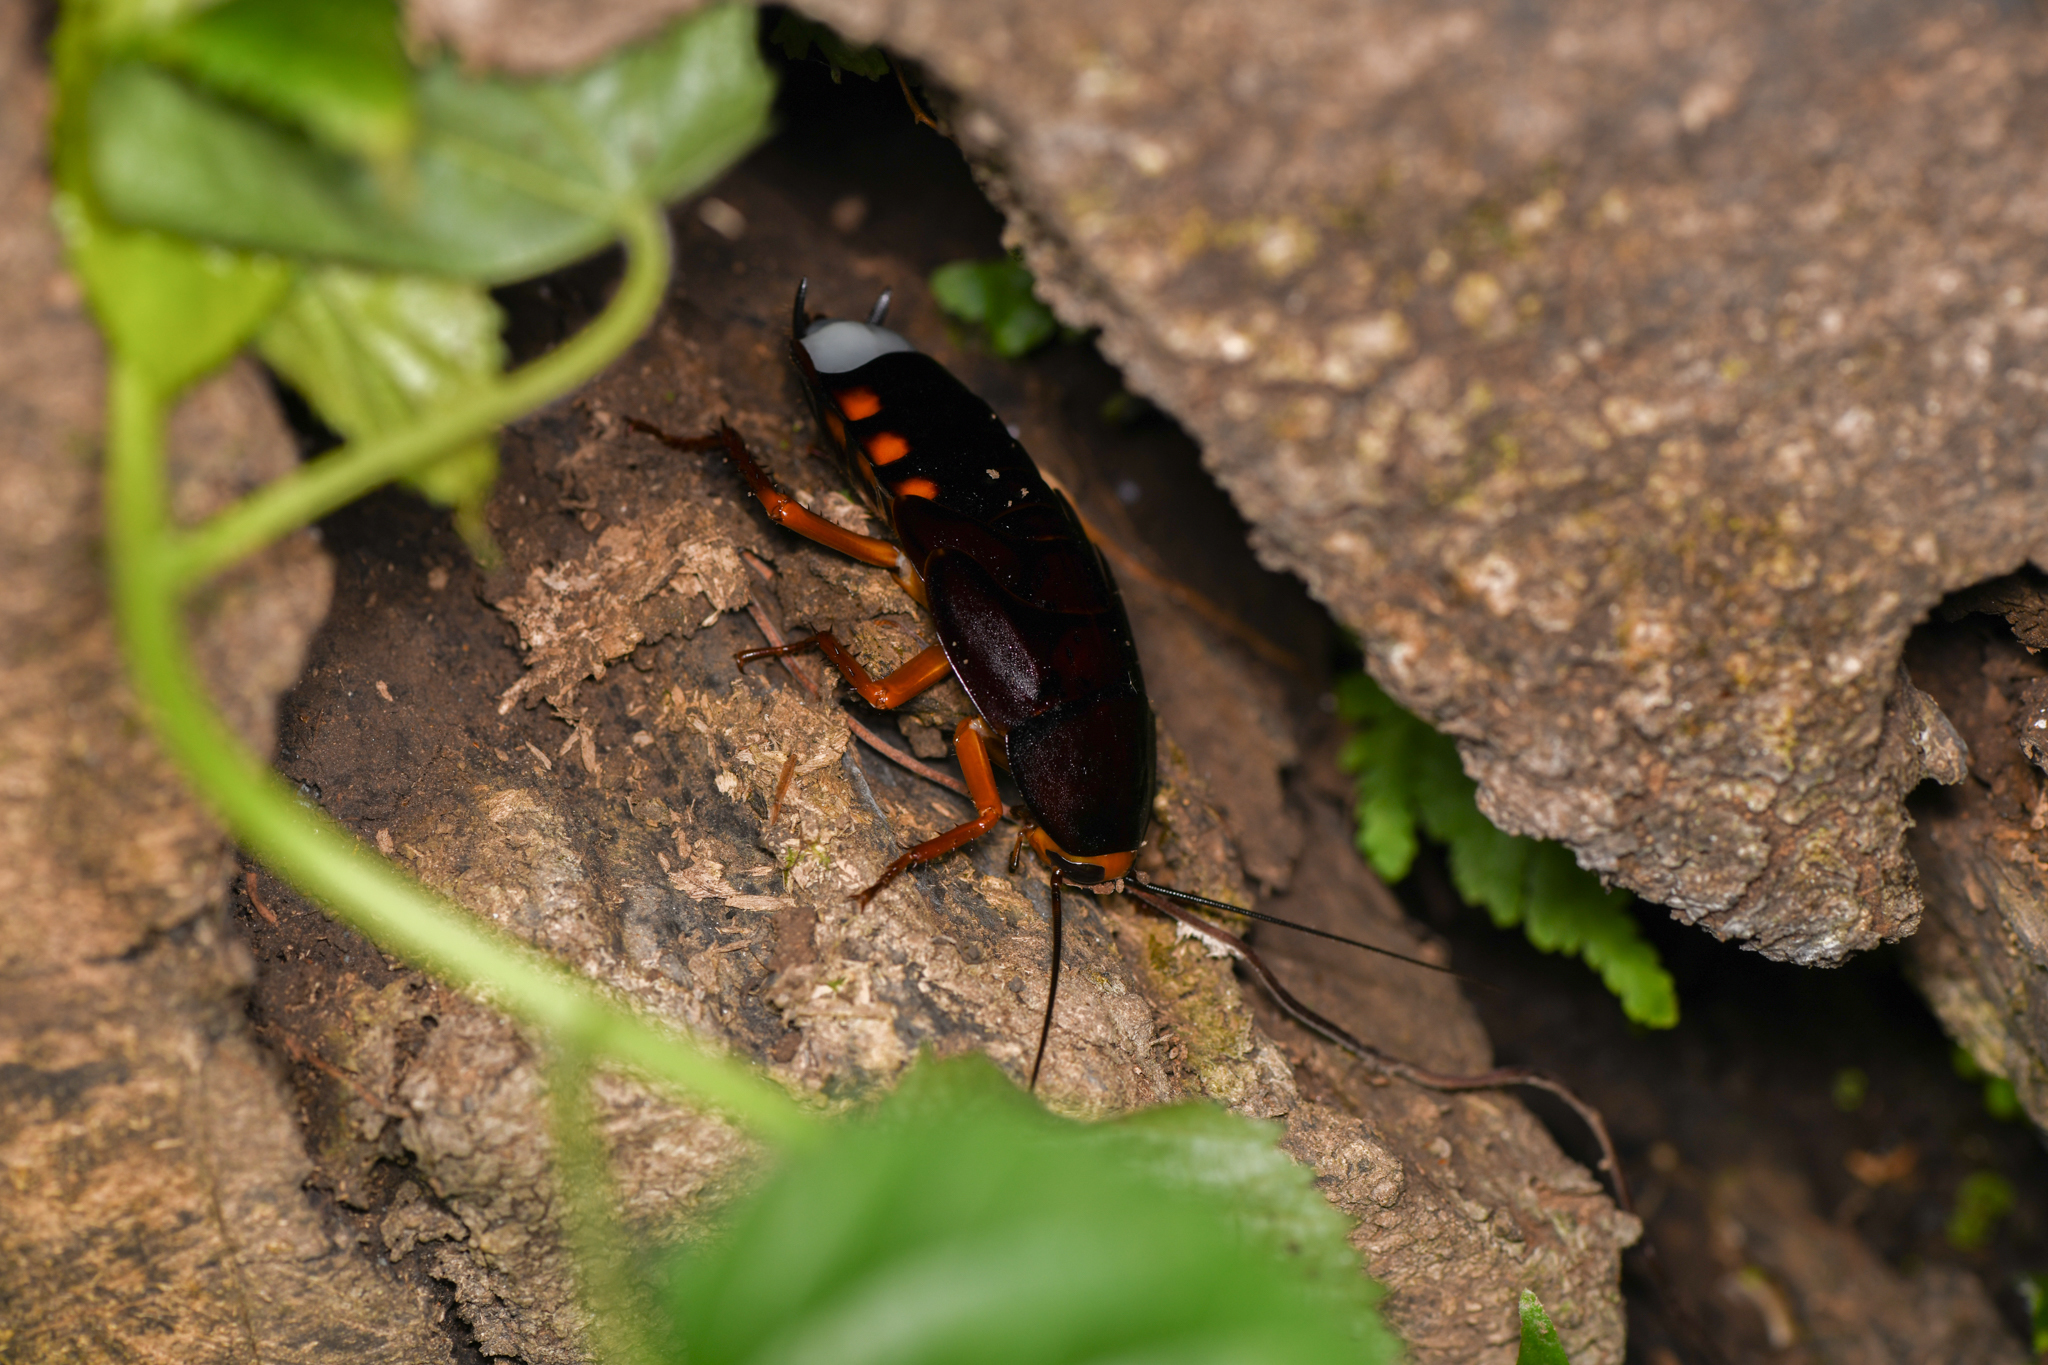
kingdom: Animalia
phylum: Arthropoda
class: Insecta
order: Blattodea
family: Ectobiidae
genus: Megaloblatta
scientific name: Megaloblatta blaberoides
